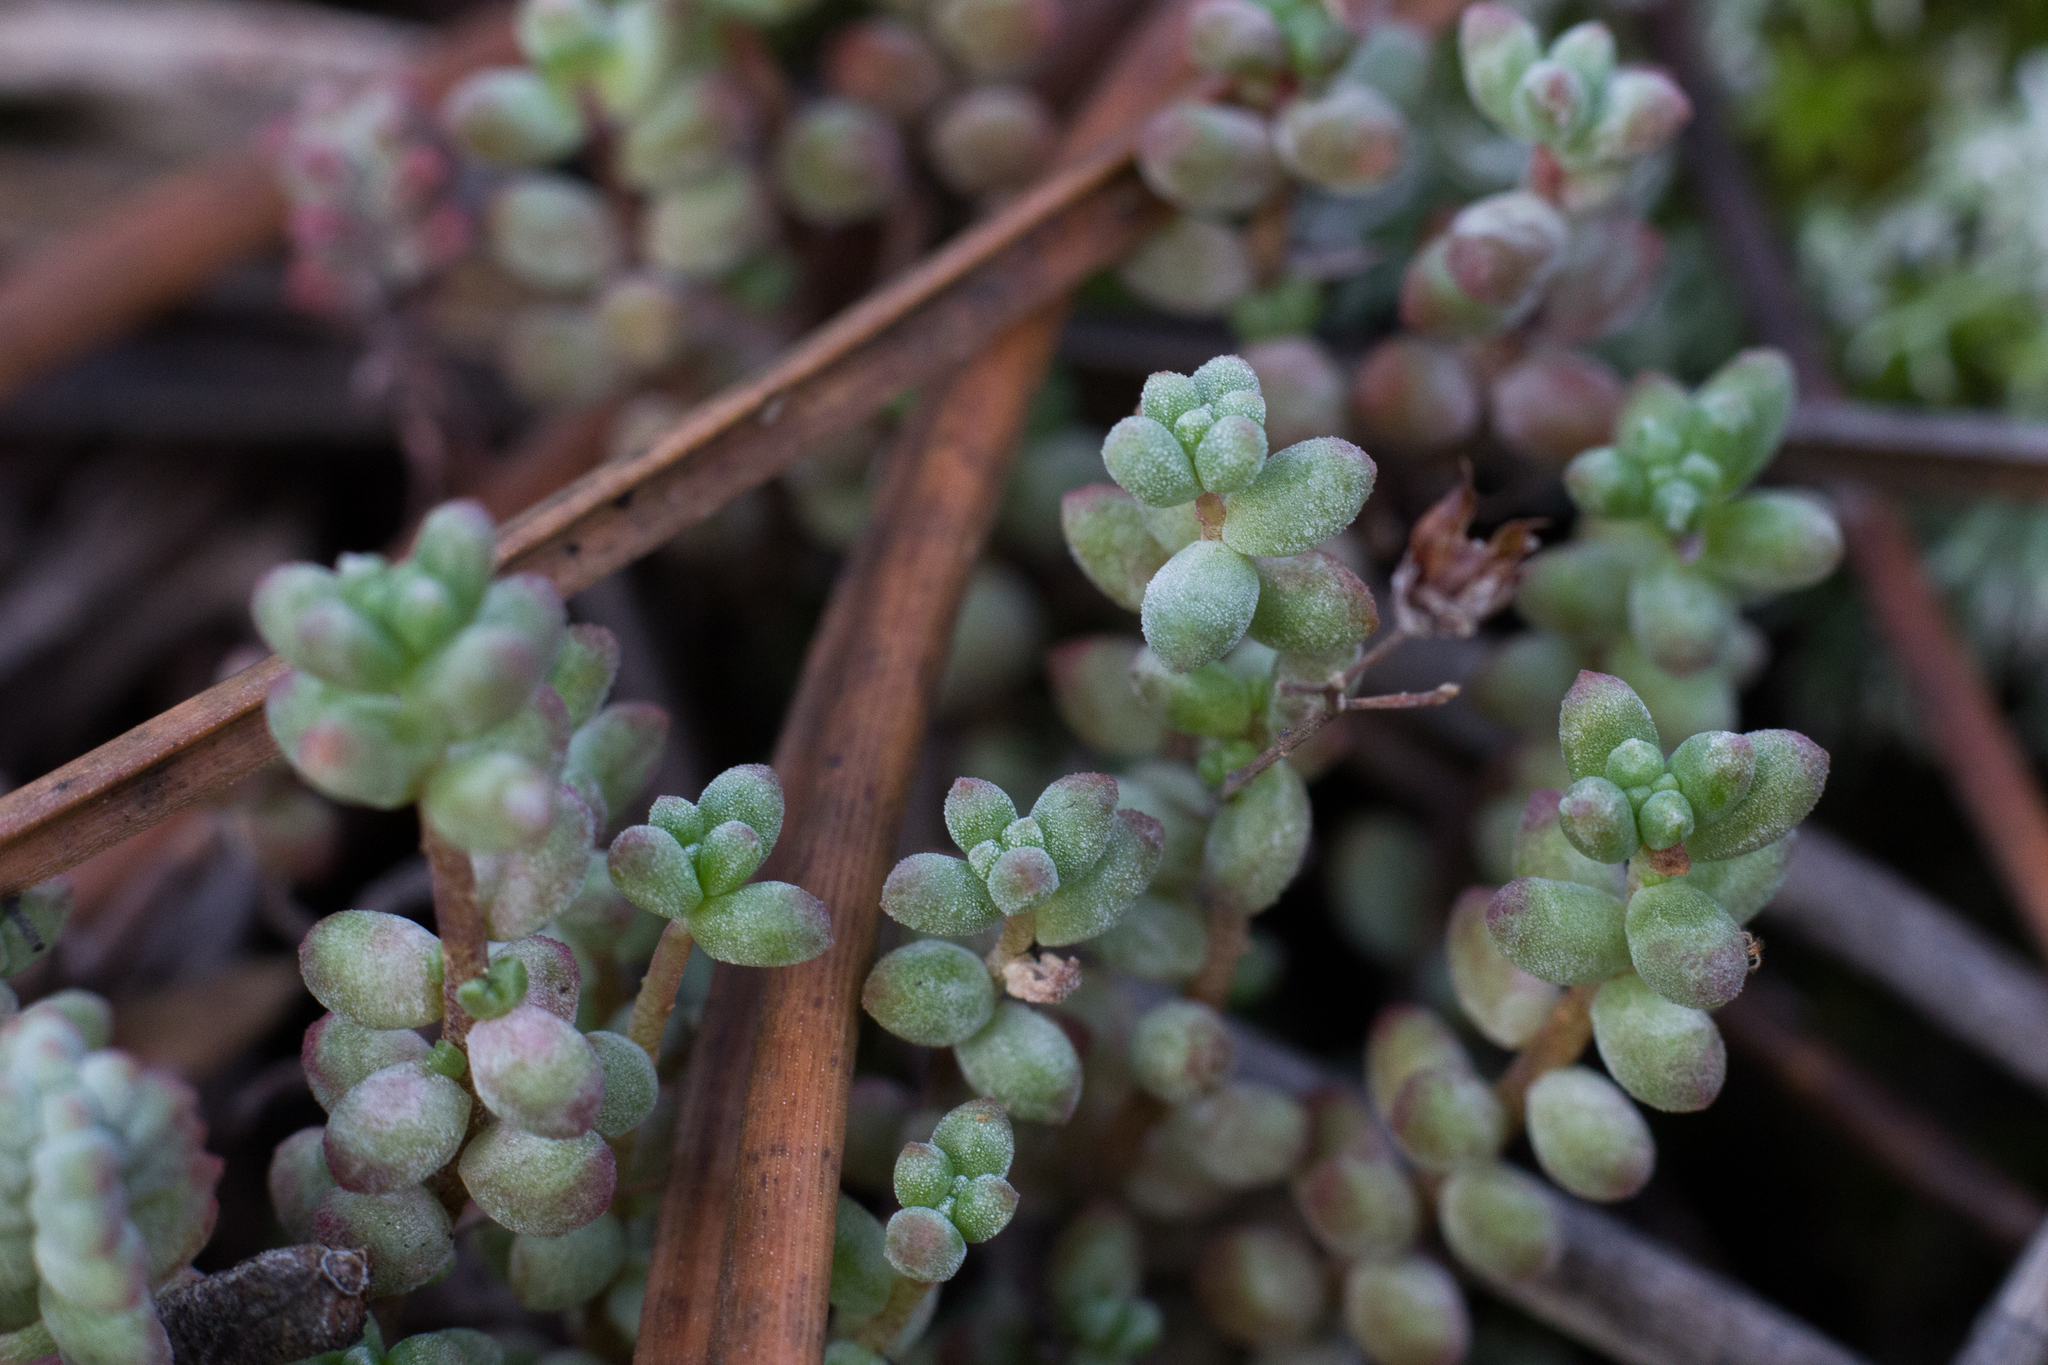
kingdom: Plantae
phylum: Tracheophyta
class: Magnoliopsida
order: Saxifragales
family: Crassulaceae
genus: Sedum
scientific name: Sedum brevifolium
